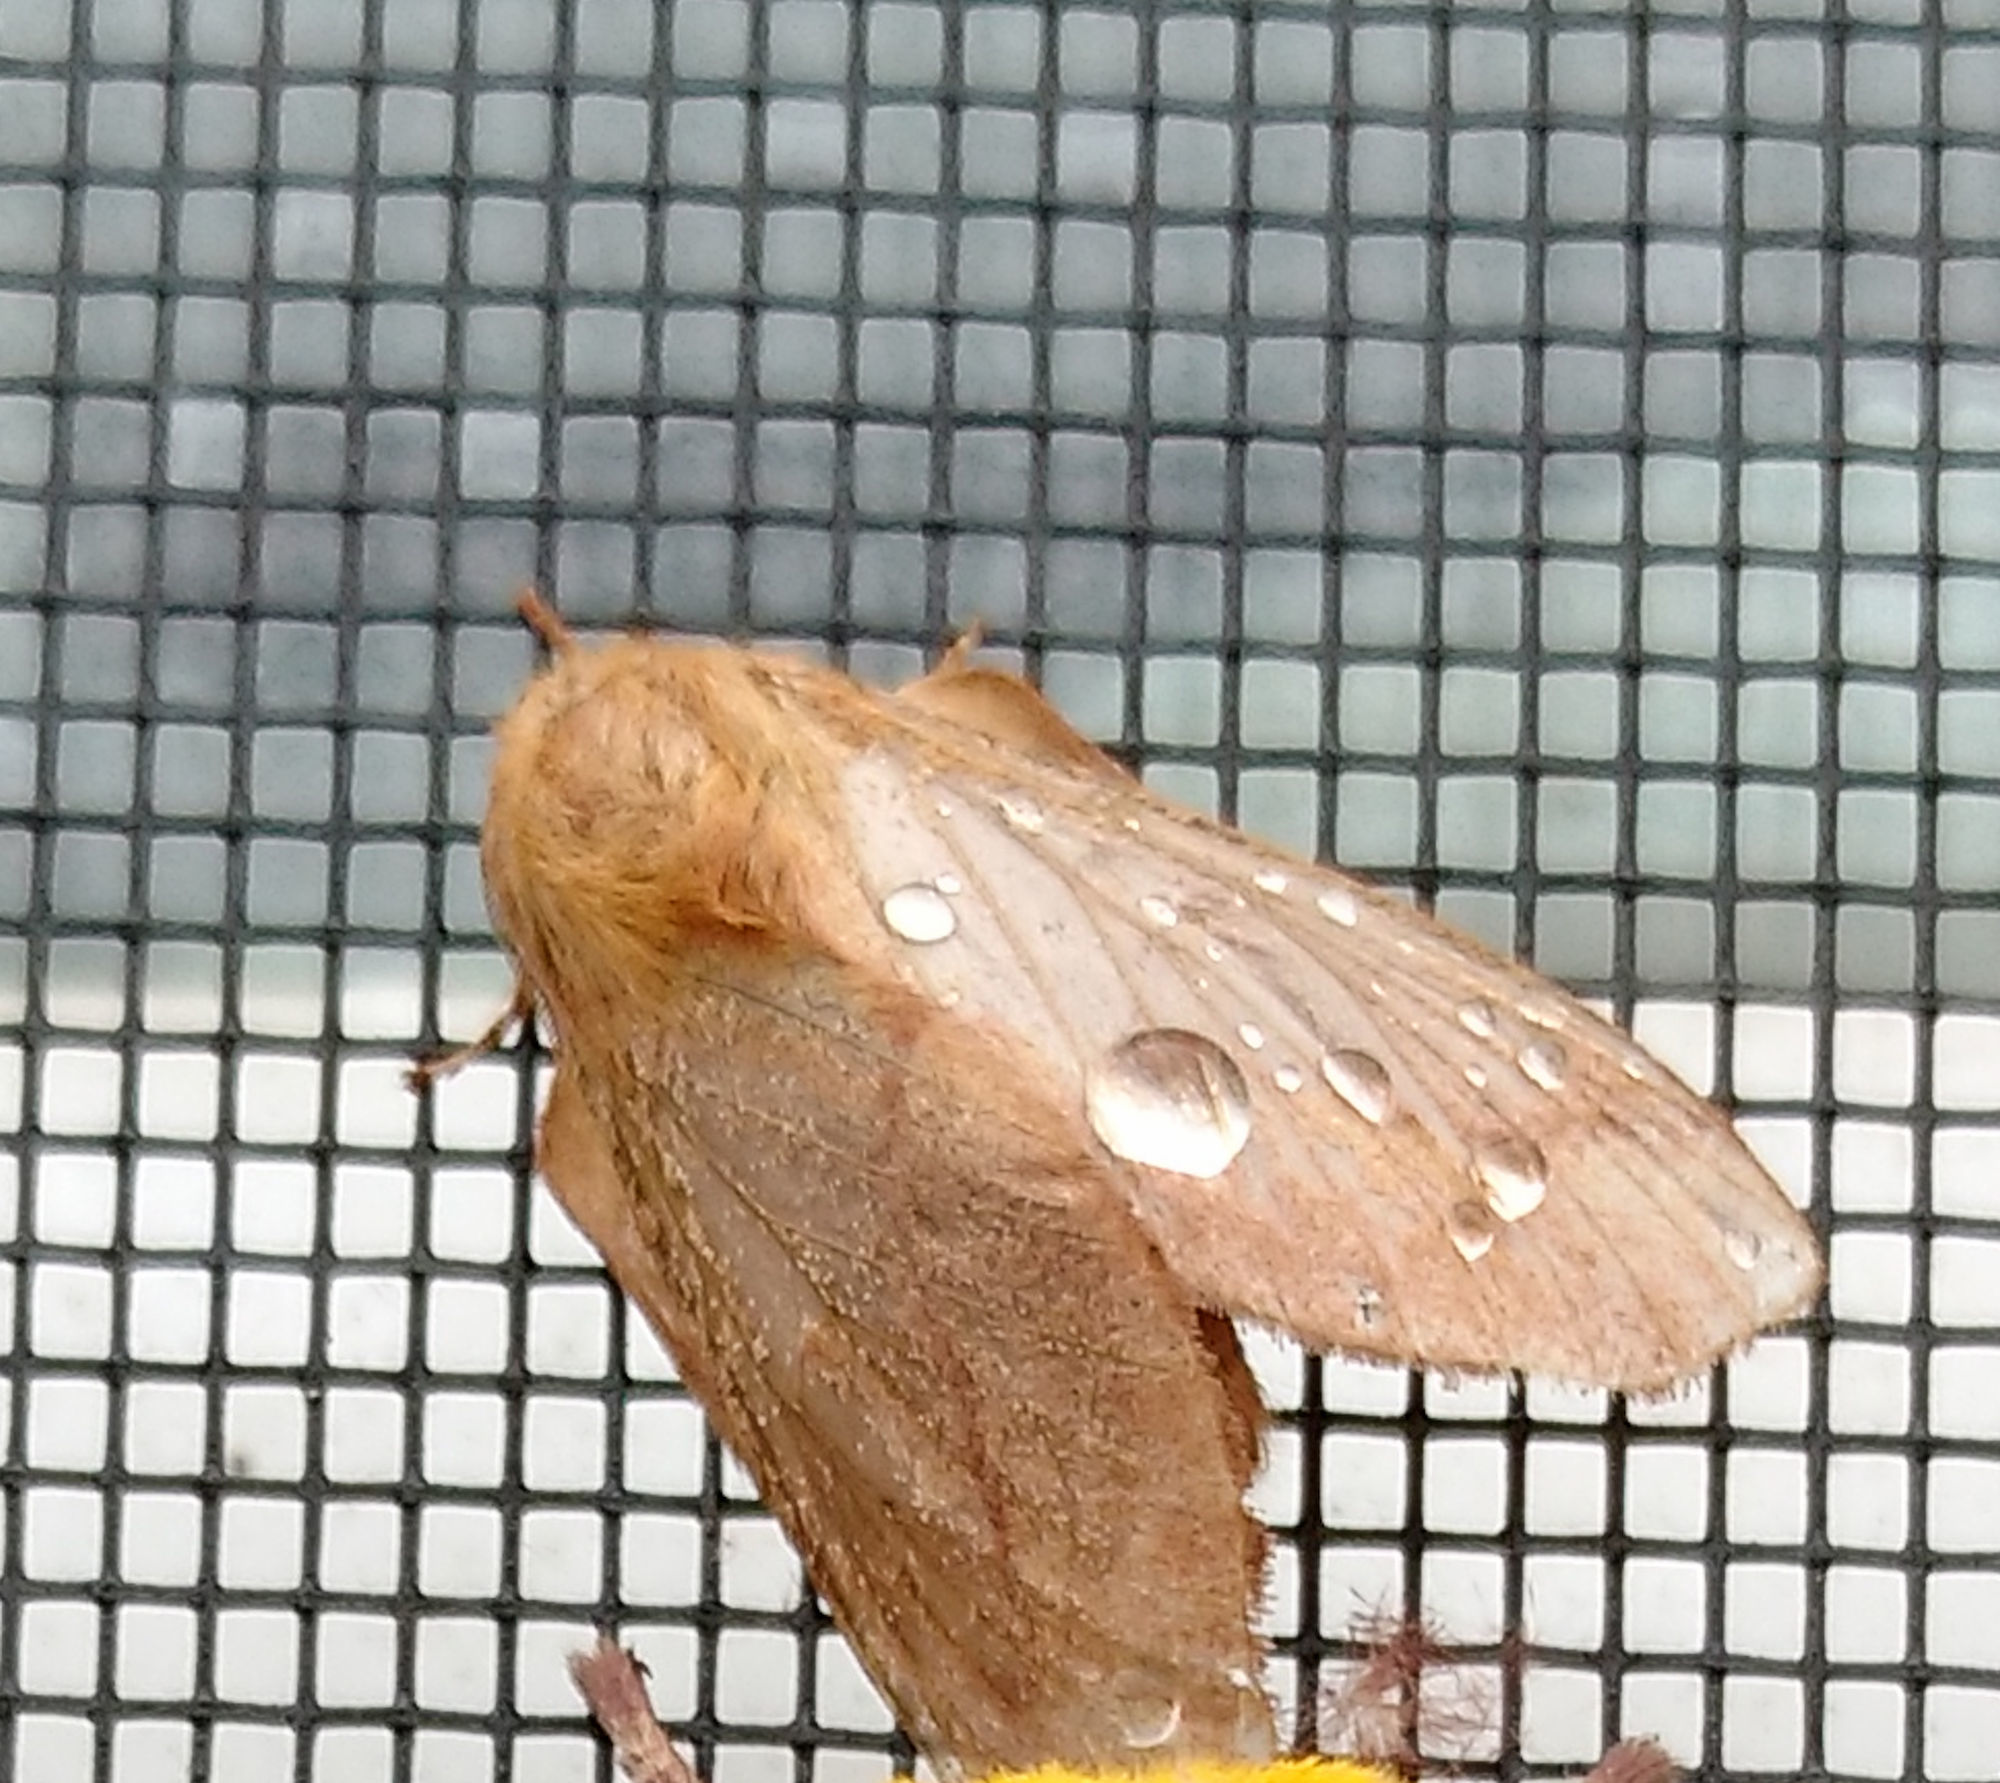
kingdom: Animalia
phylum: Arthropoda
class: Insecta
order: Lepidoptera
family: Lasiocampidae
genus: Malacosoma
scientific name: Malacosoma disstria
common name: Forest tent caterpillar
